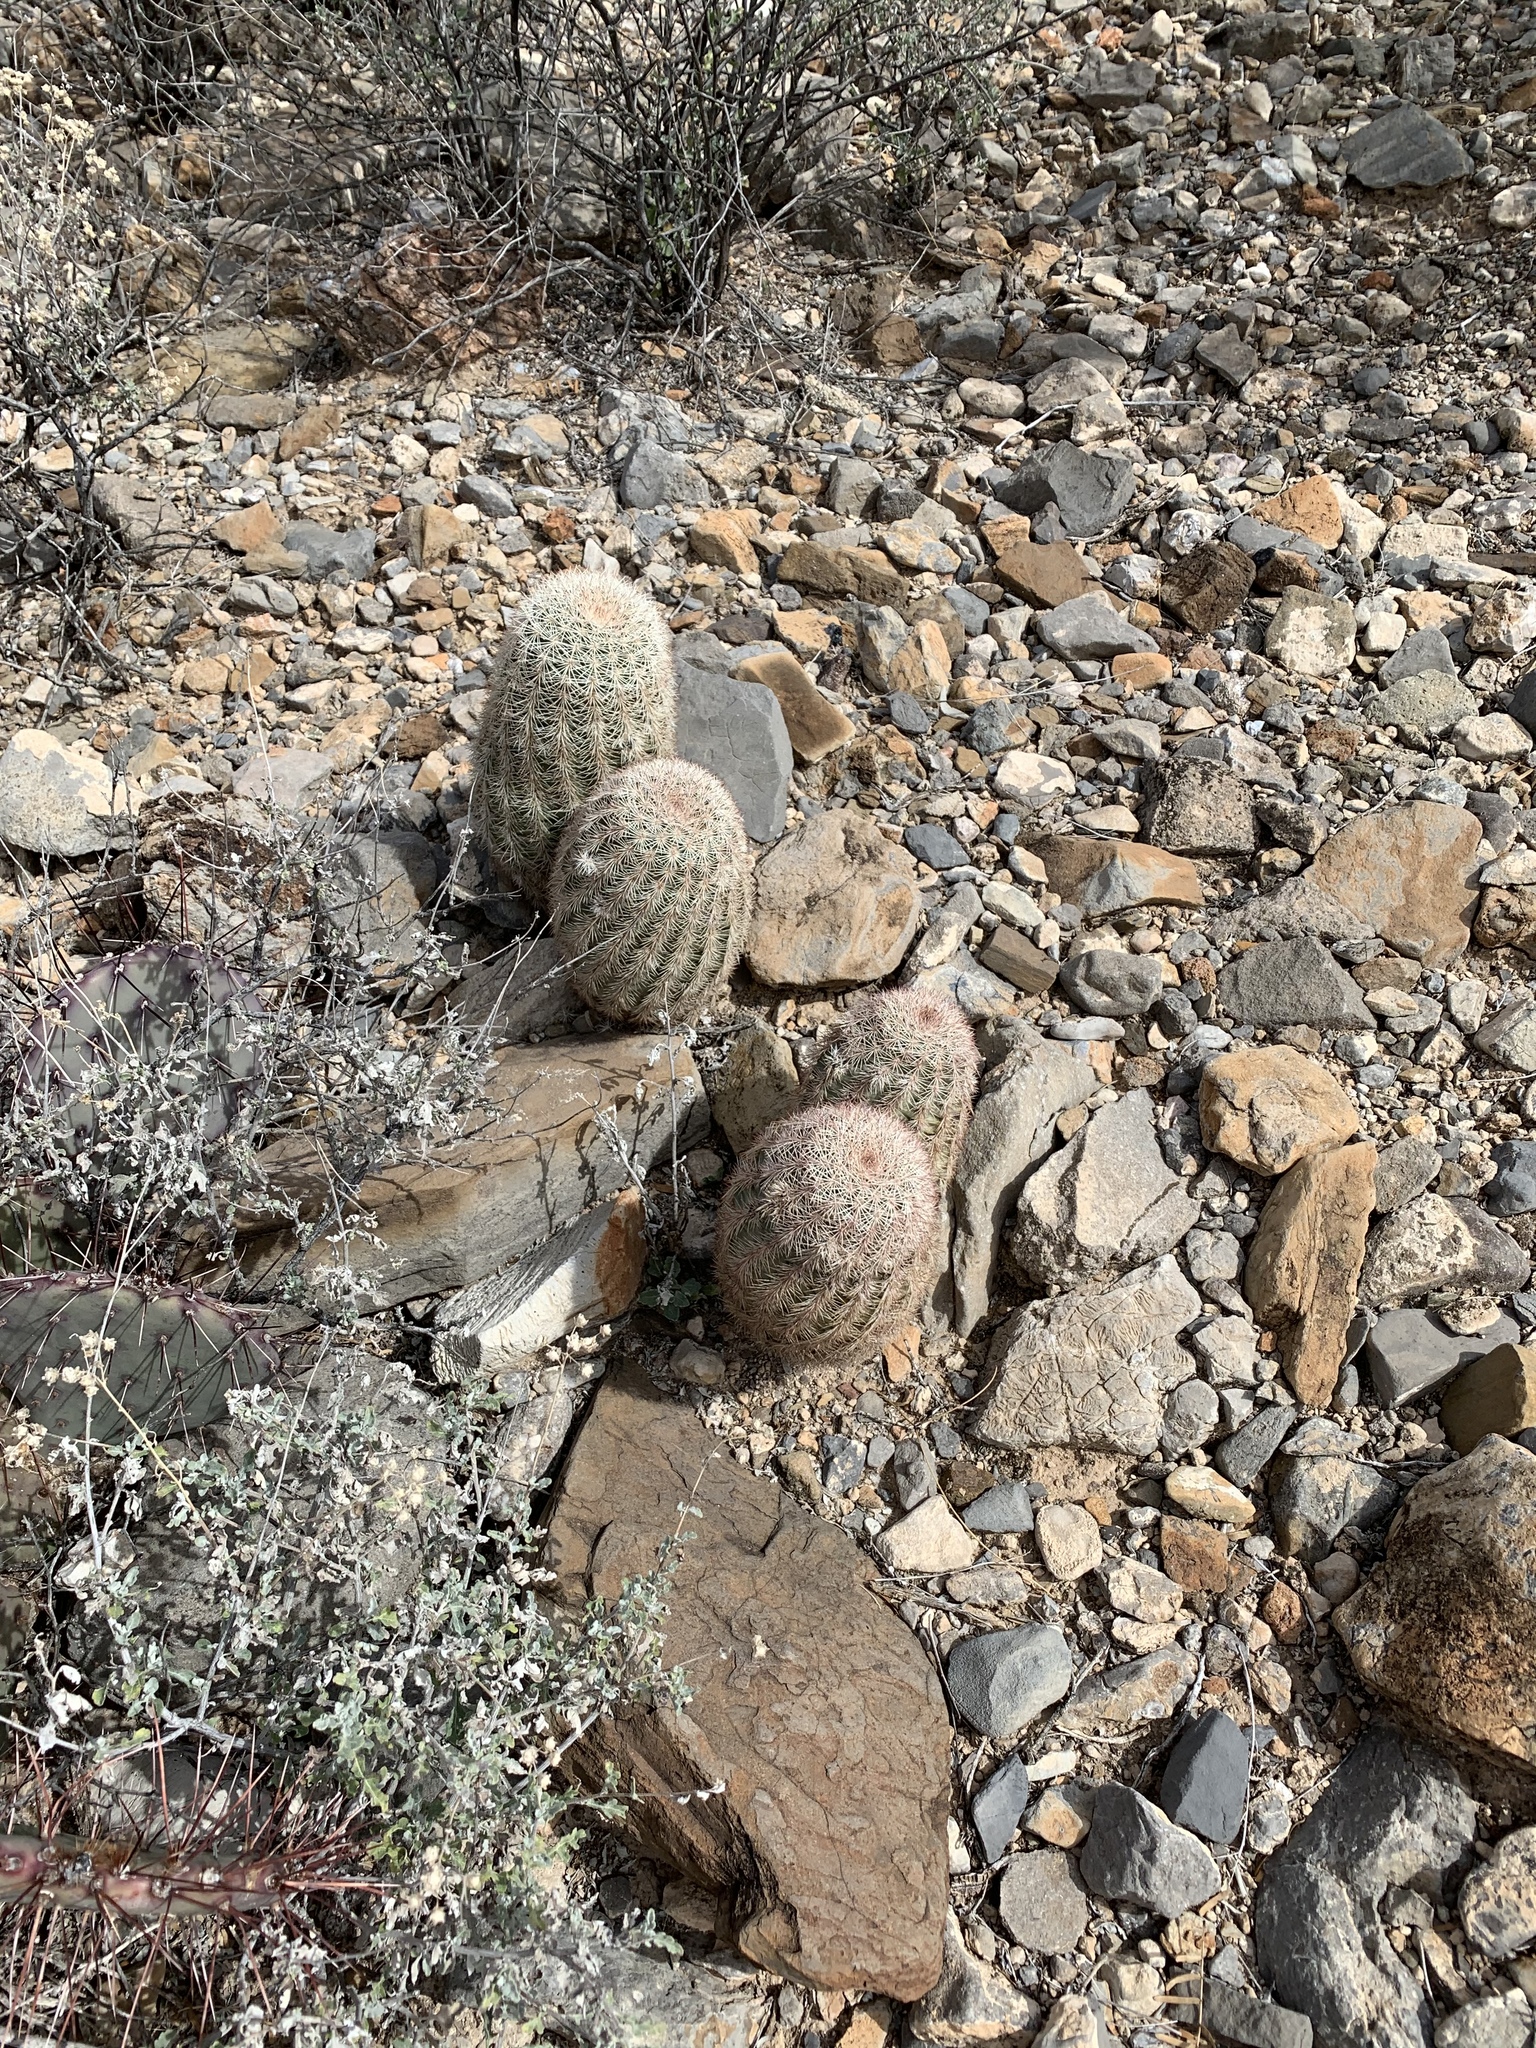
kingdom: Plantae
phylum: Tracheophyta
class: Magnoliopsida
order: Caryophyllales
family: Cactaceae
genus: Echinocereus
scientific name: Echinocereus dasyacanthus
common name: Spiny hedgehog cactus
